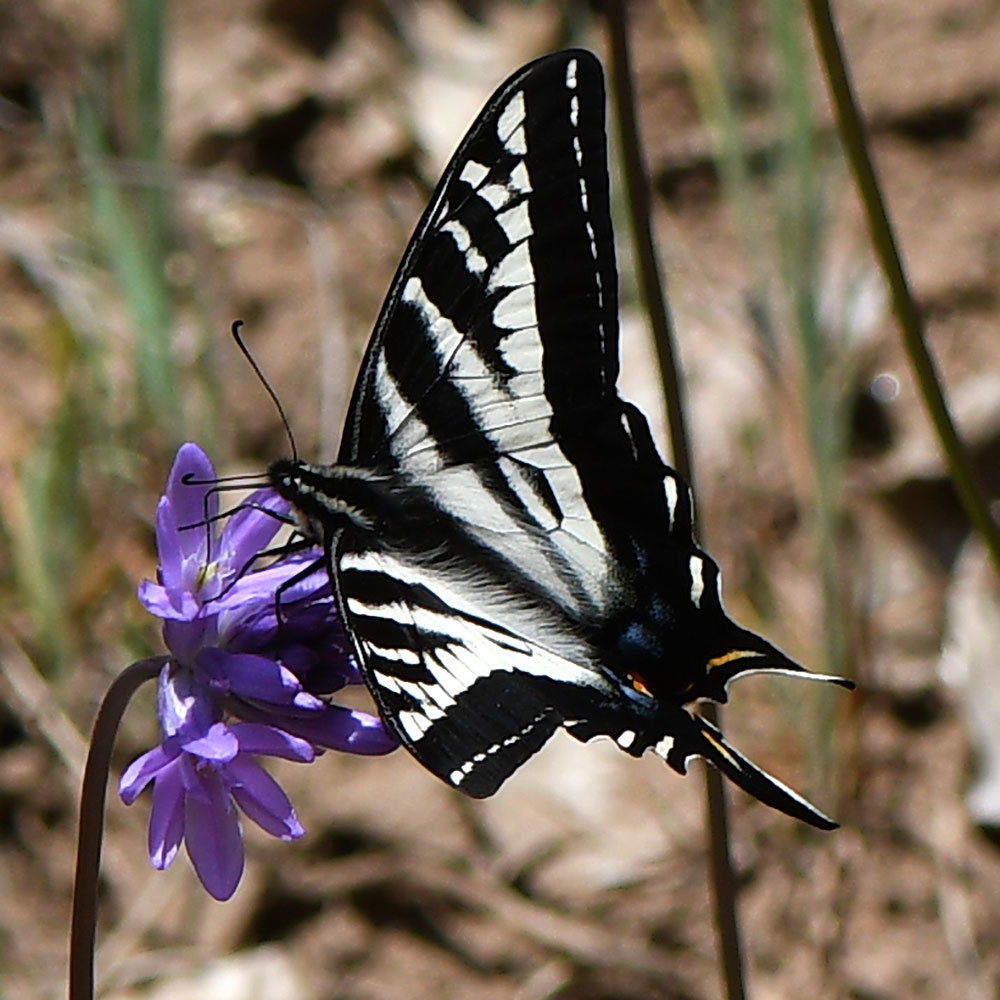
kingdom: Animalia
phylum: Arthropoda
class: Insecta
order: Lepidoptera
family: Papilionidae
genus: Papilio
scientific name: Papilio eurymedon
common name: Pale tiger swallowtail
